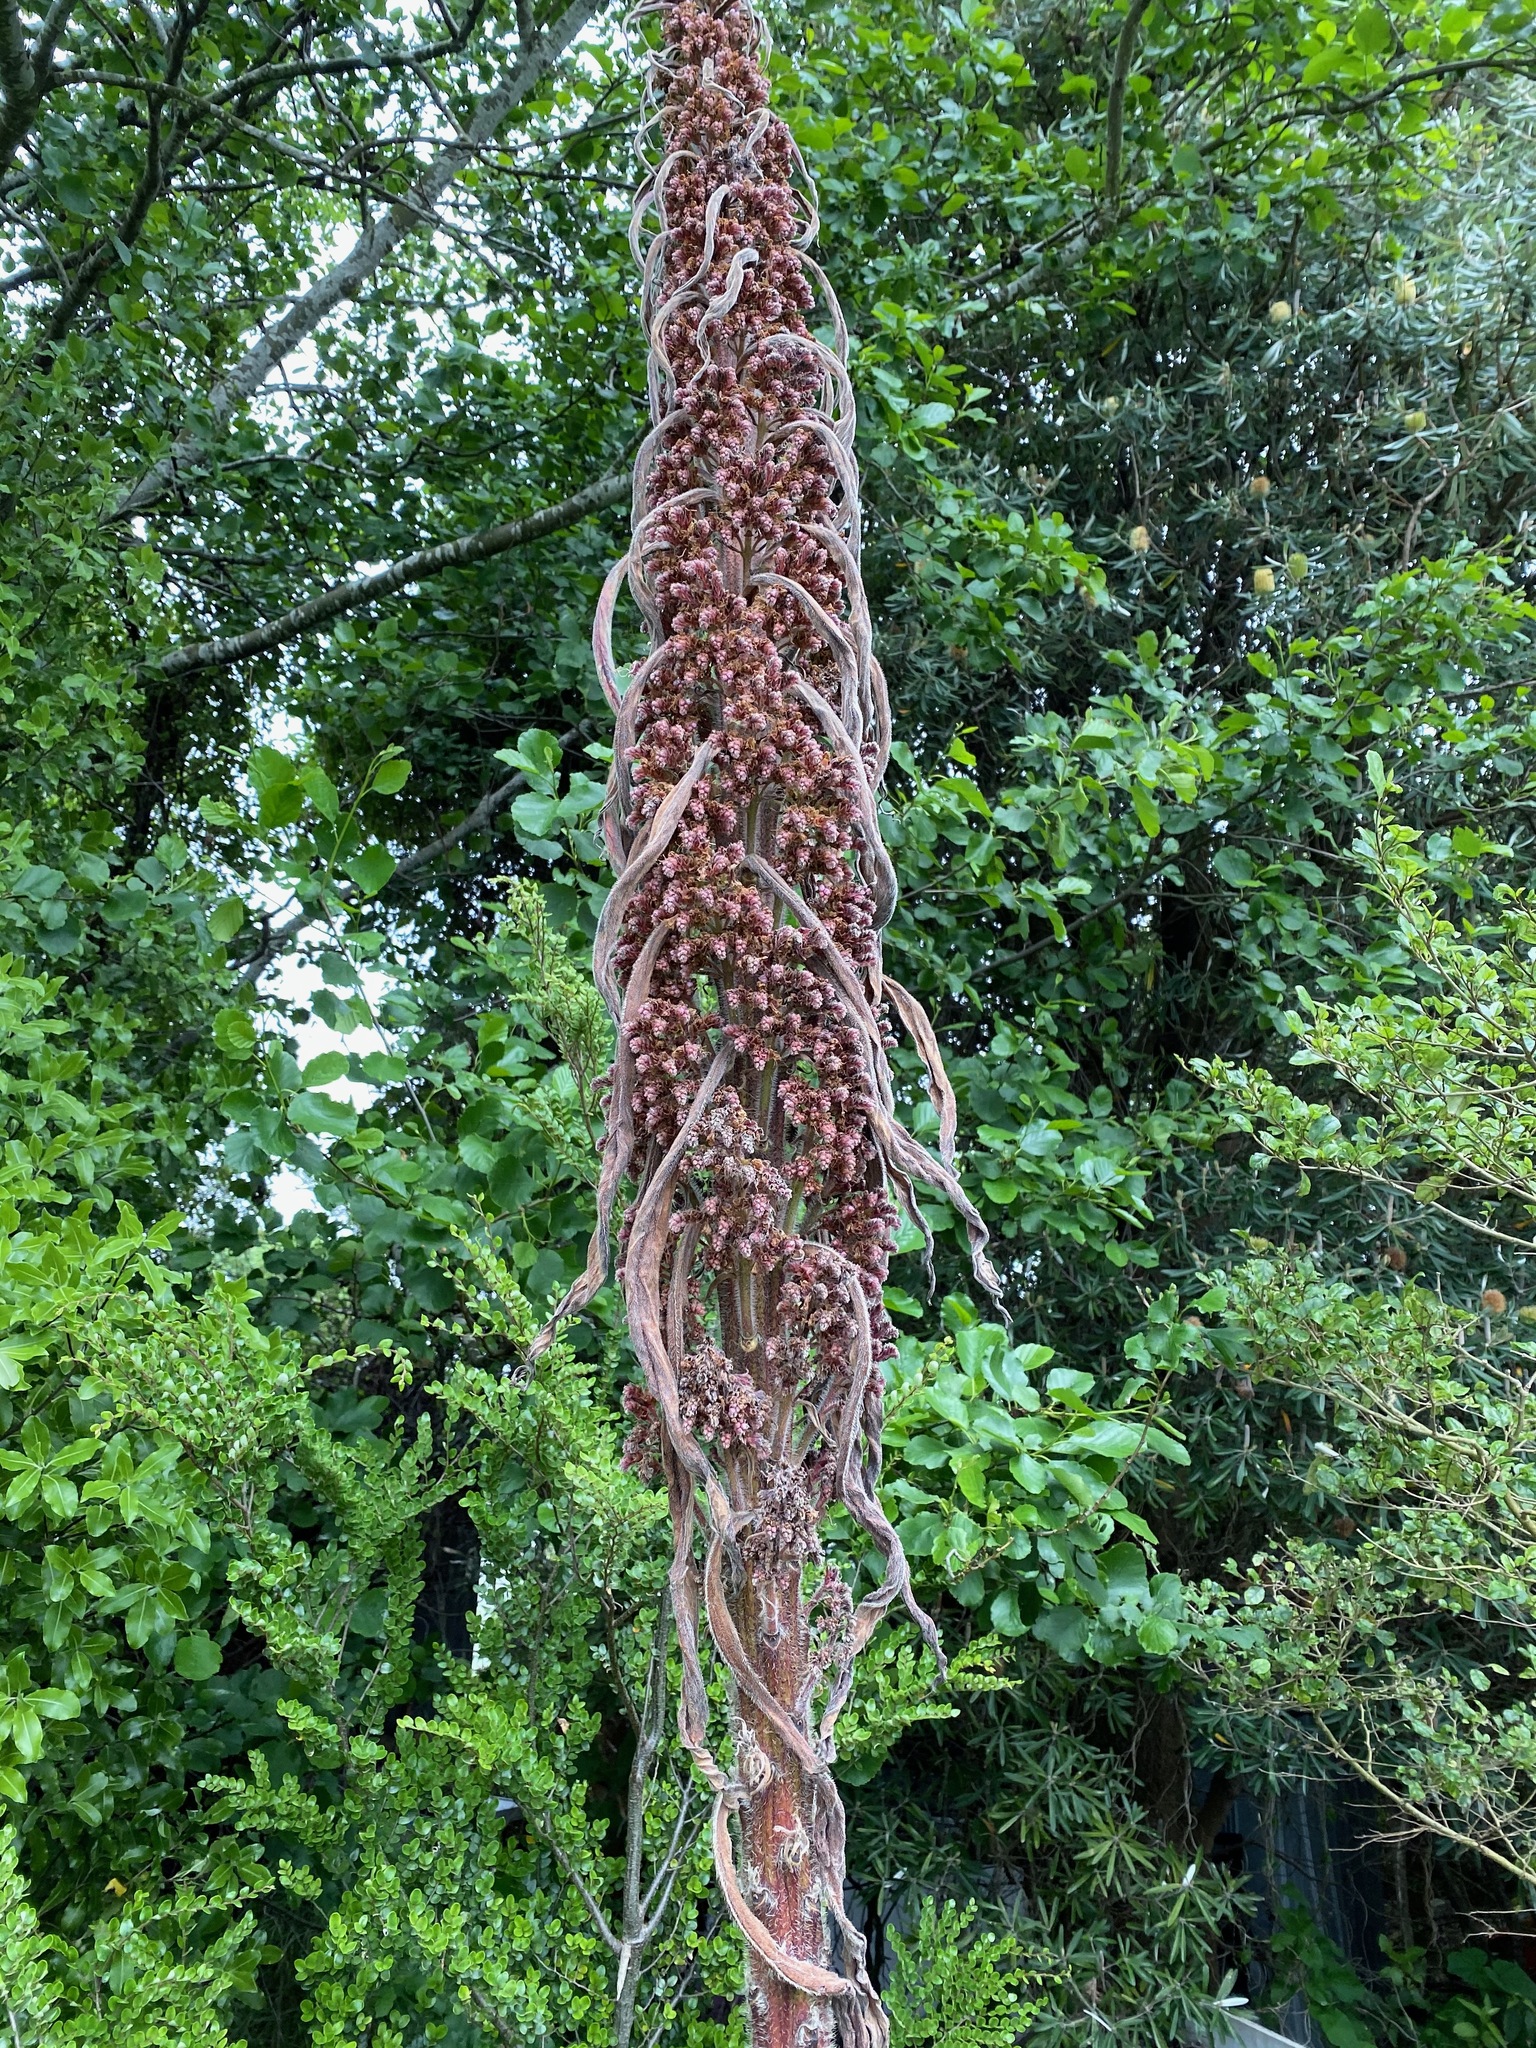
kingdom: Plantae
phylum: Tracheophyta
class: Magnoliopsida
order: Boraginales
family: Boraginaceae
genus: Echium
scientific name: Echium pininana
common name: Giant viper's-bugloss
